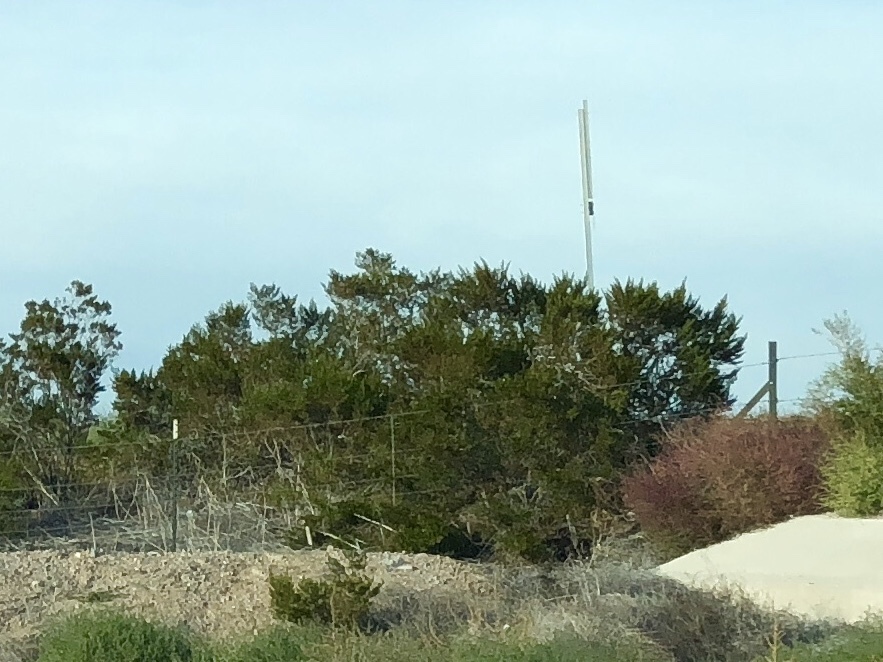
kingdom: Plantae
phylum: Tracheophyta
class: Magnoliopsida
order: Zygophyllales
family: Zygophyllaceae
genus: Larrea
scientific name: Larrea tridentata
